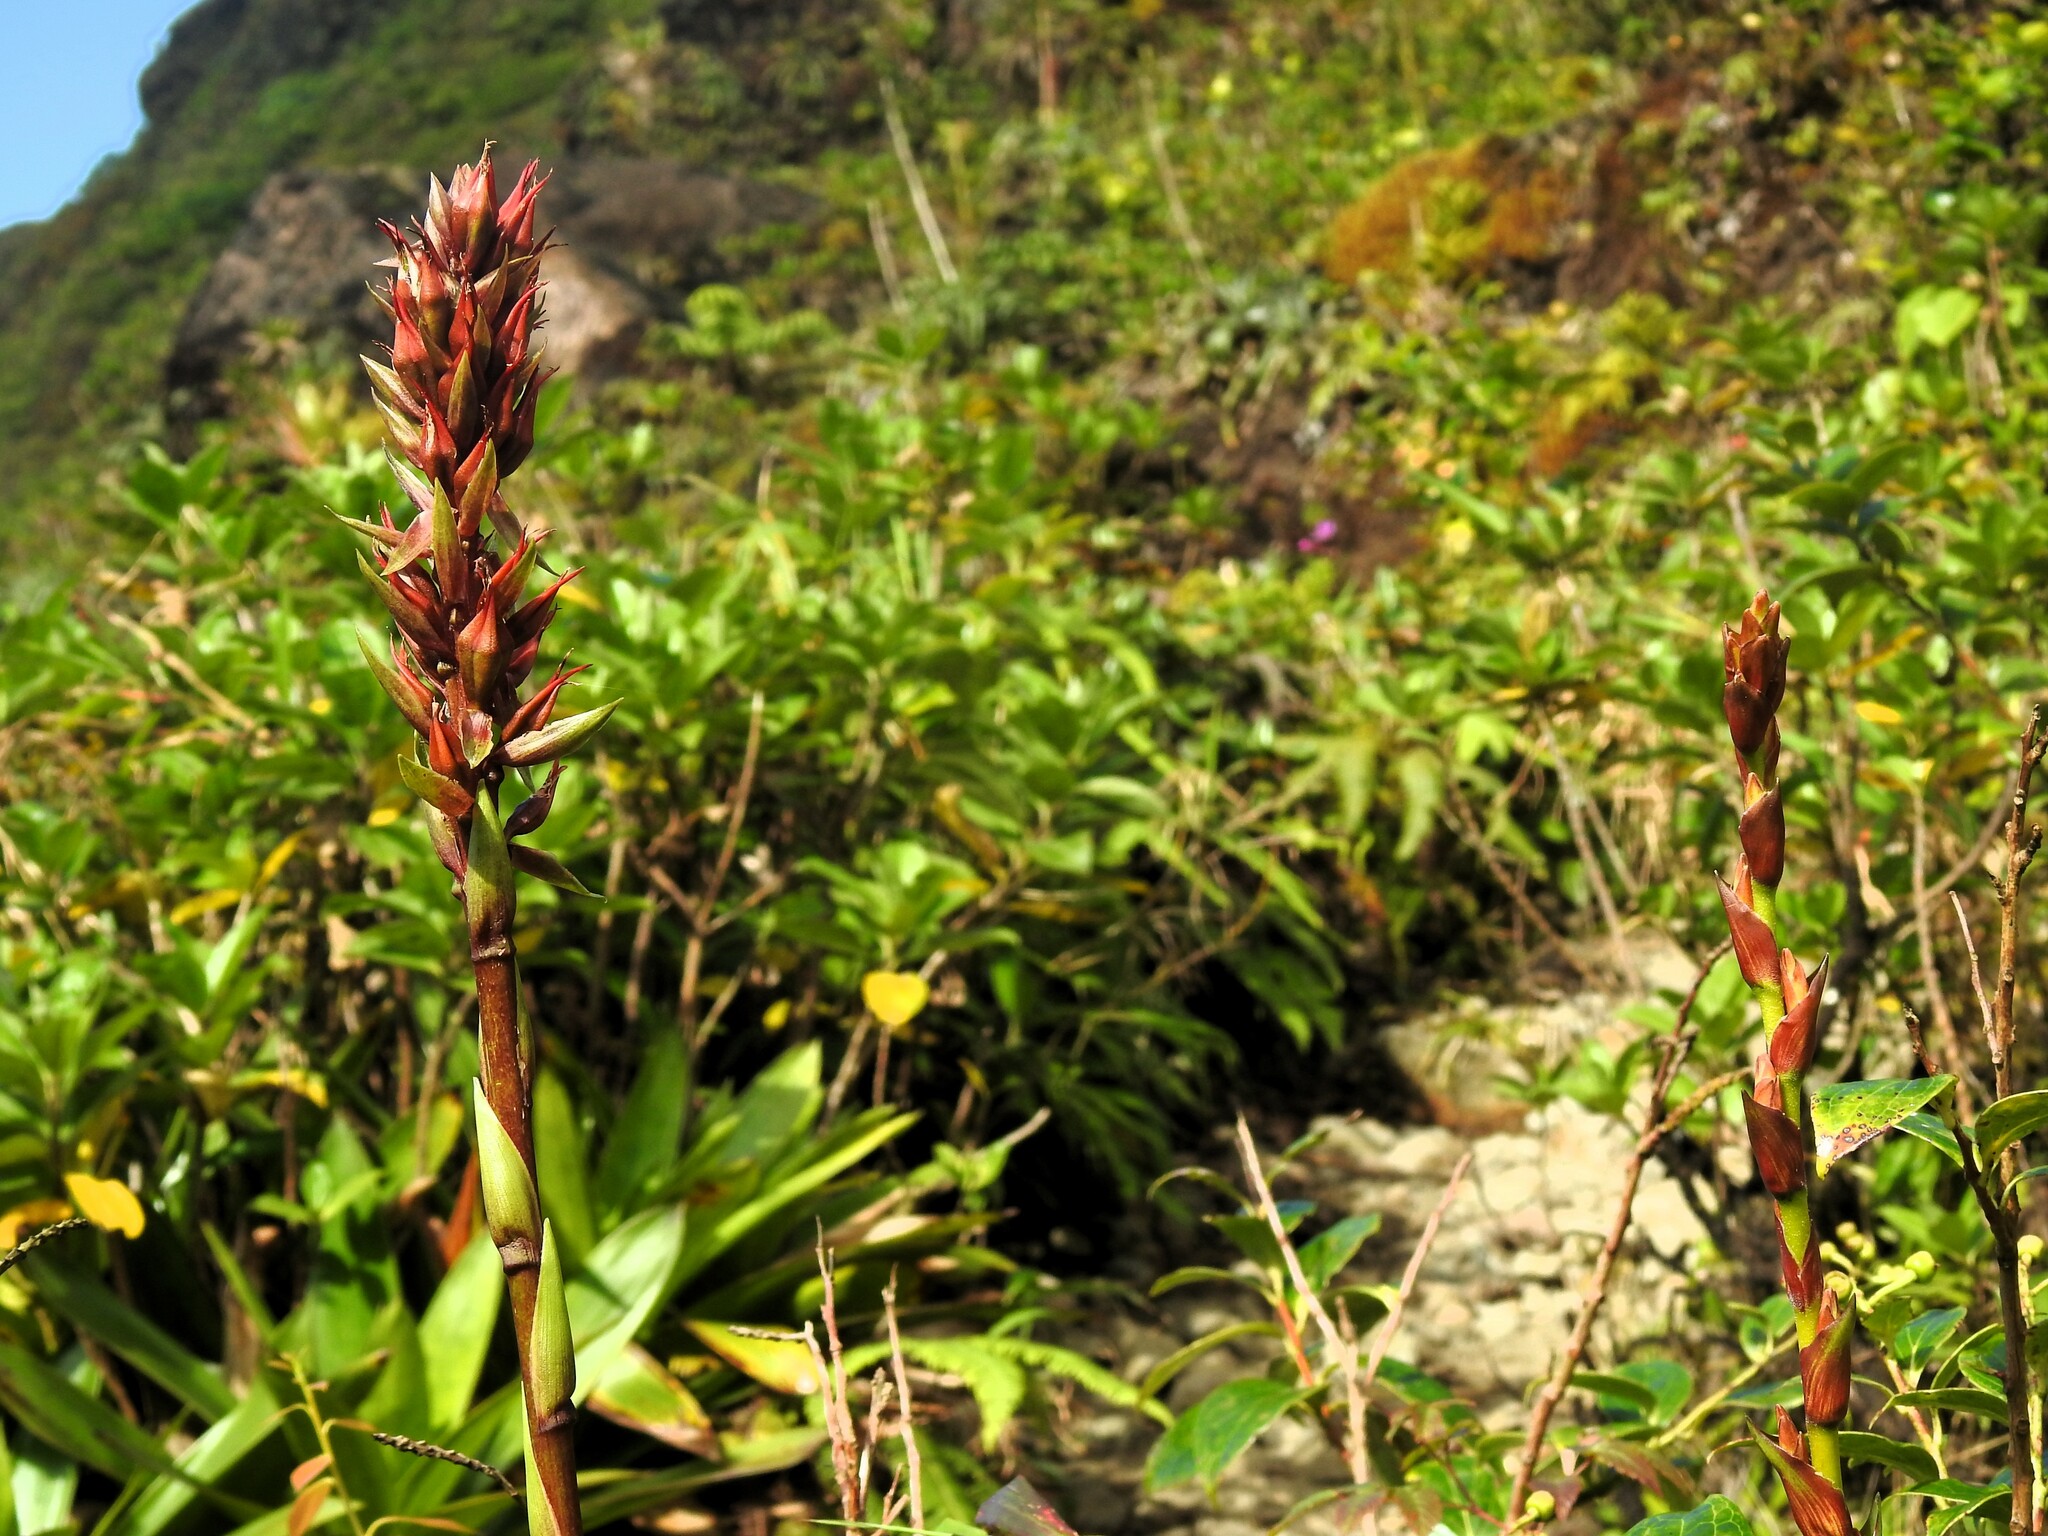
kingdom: Plantae
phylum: Tracheophyta
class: Liliopsida
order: Poales
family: Bromeliaceae
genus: Pitcairnia
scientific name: Pitcairnia bifrons
